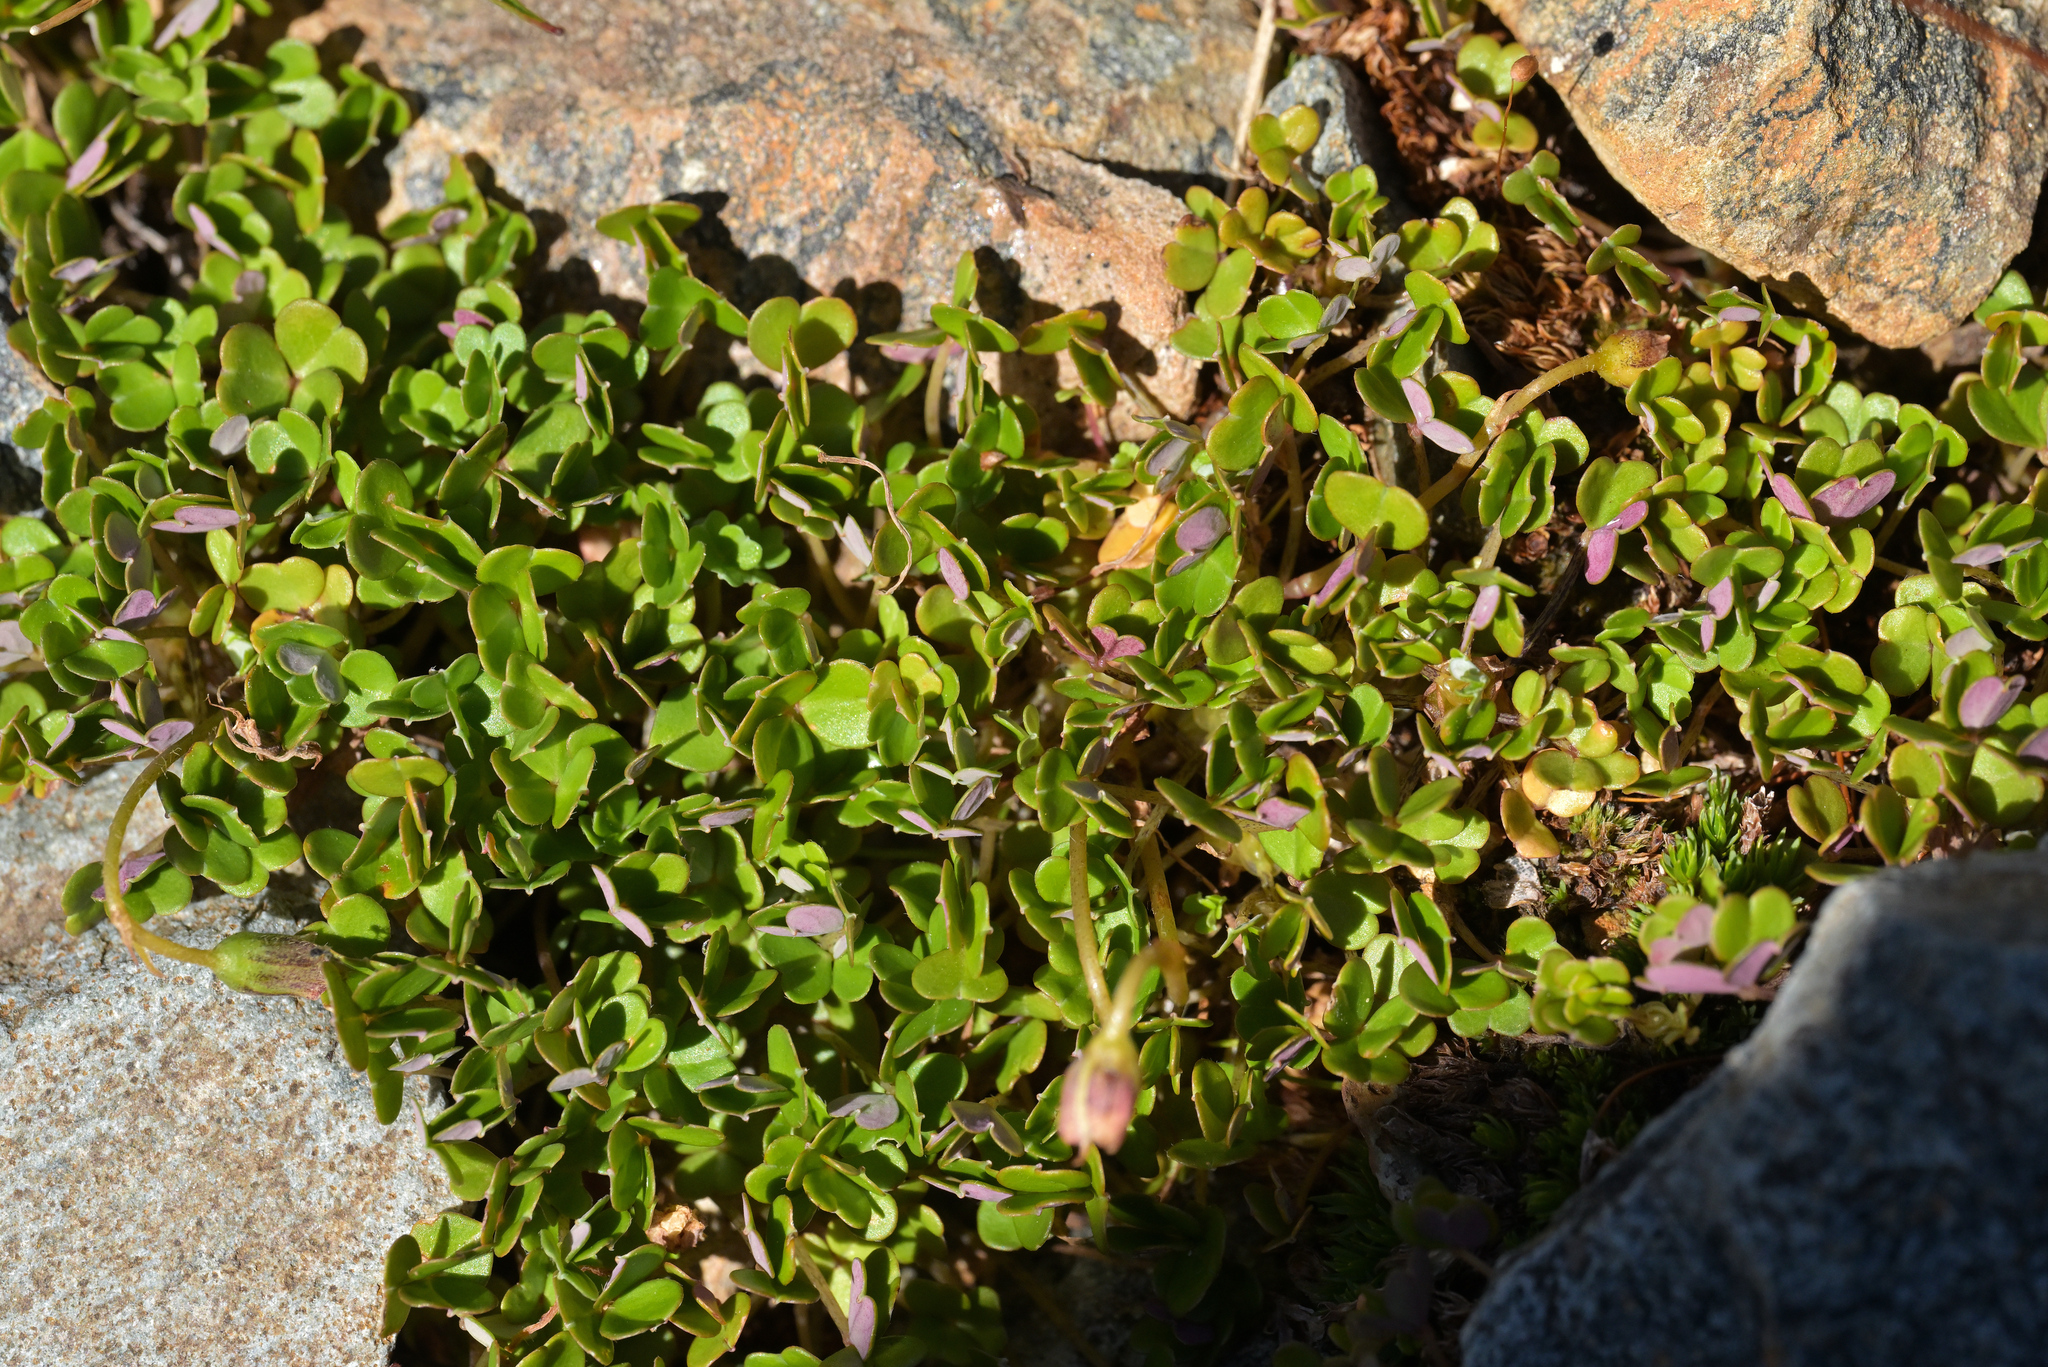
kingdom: Plantae
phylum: Tracheophyta
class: Magnoliopsida
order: Oxalidales
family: Oxalidaceae
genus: Oxalis
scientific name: Oxalis magellanica
